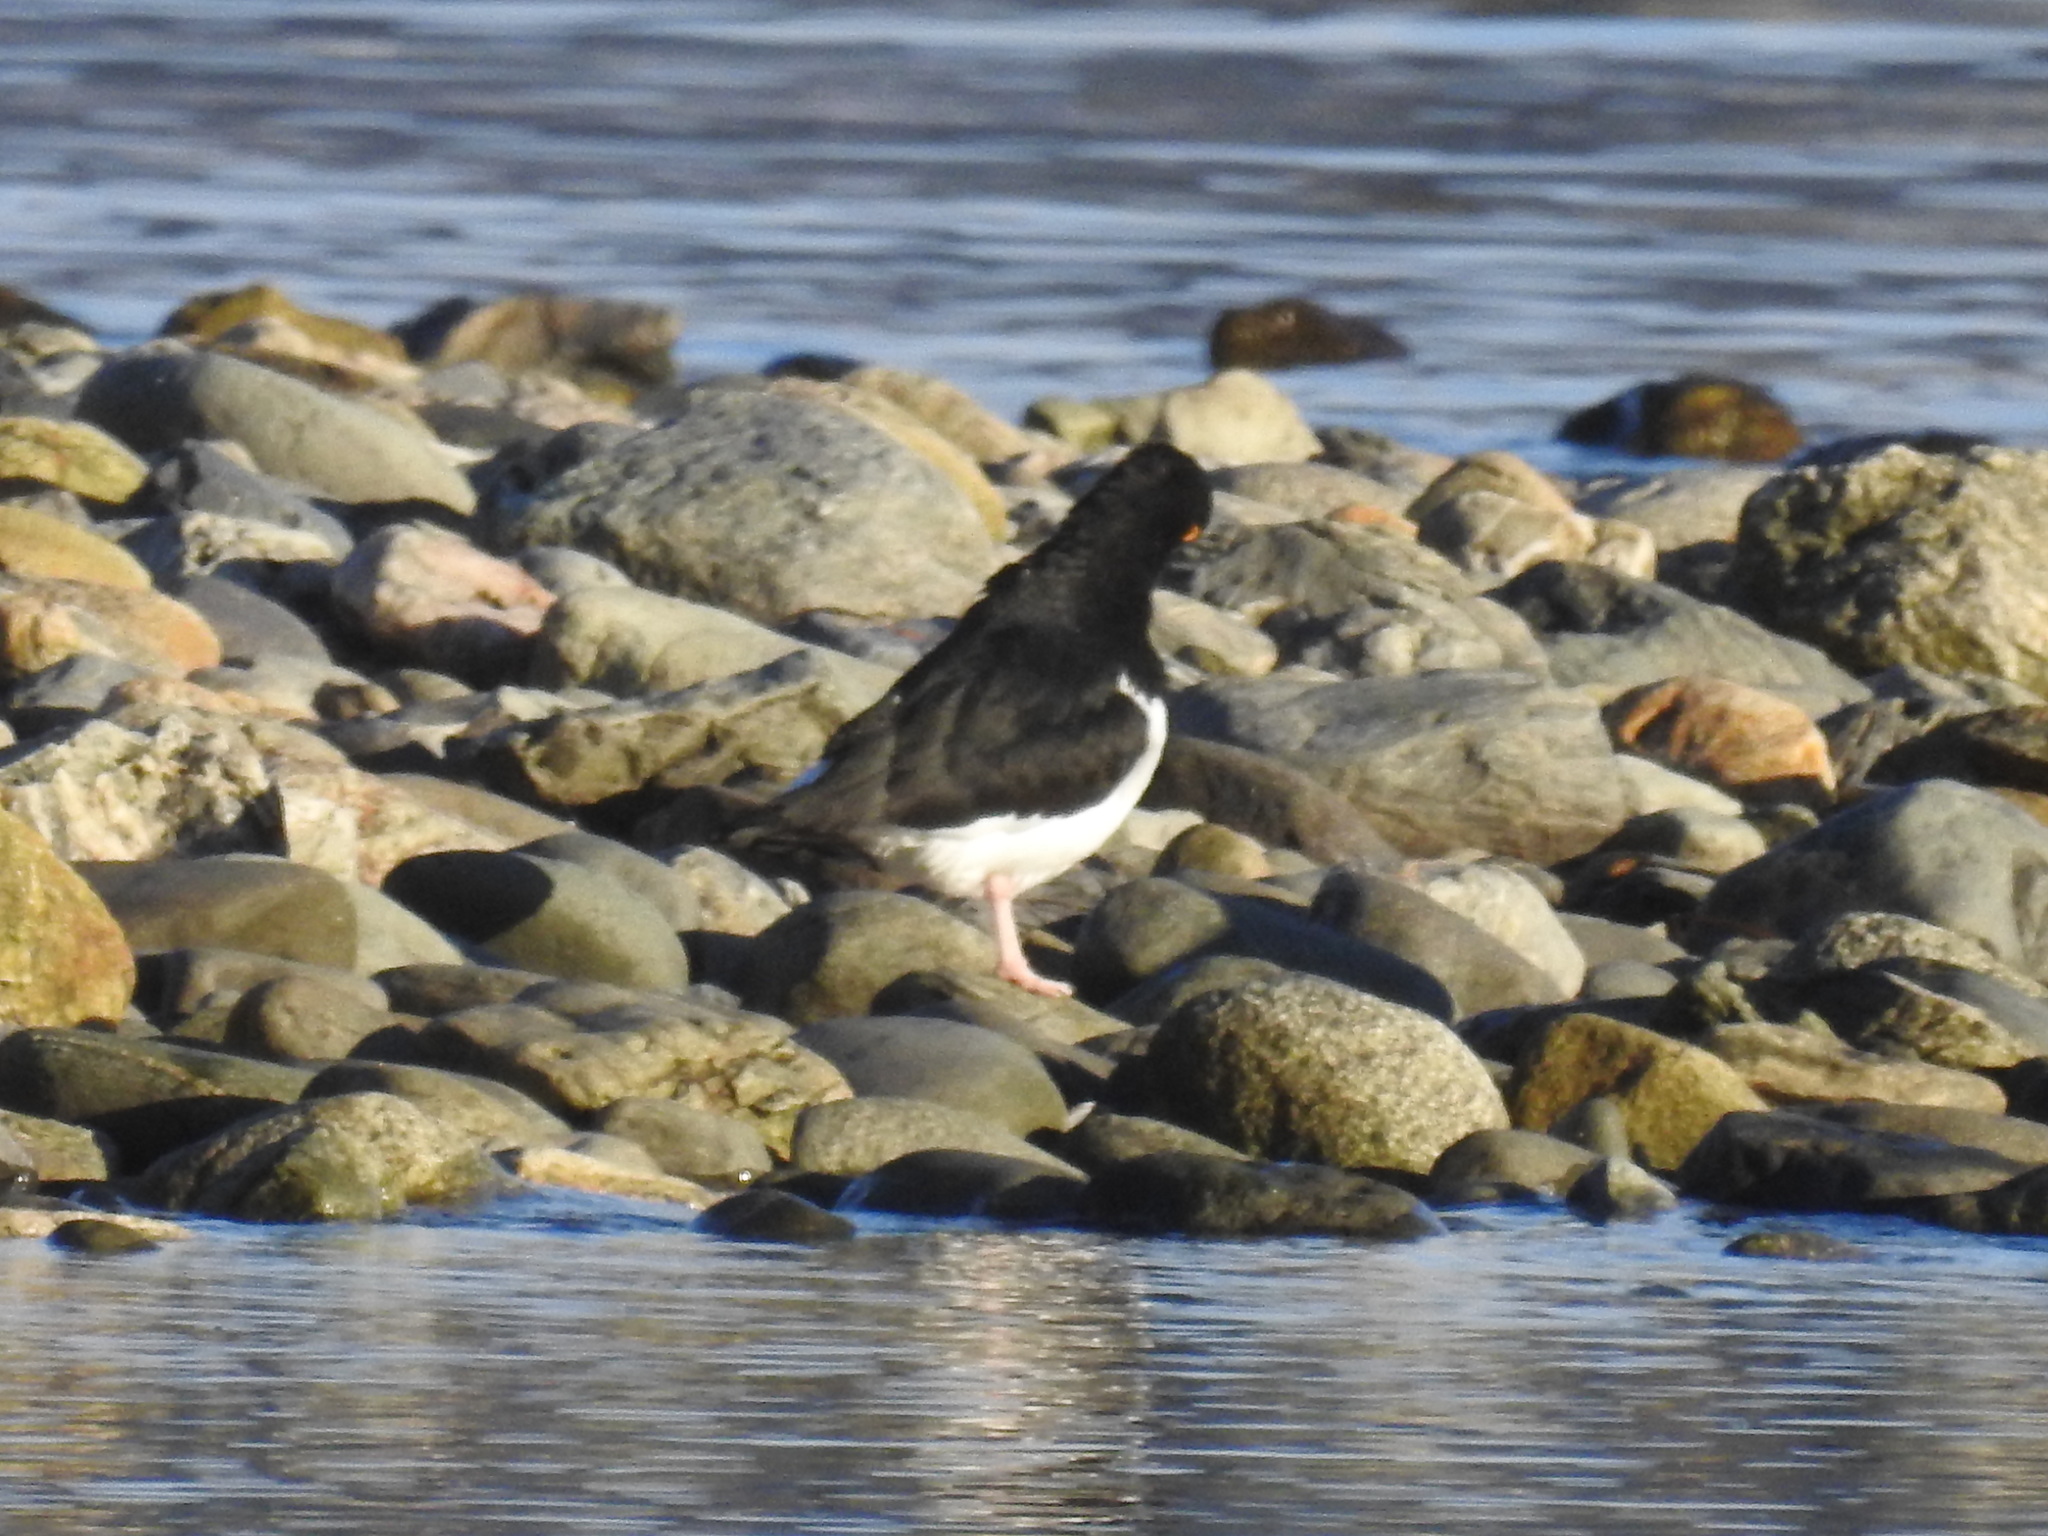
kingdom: Animalia
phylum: Chordata
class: Aves
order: Charadriiformes
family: Haematopodidae
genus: Haematopus
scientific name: Haematopus leucopodus
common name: Magellanic oystercatcher
